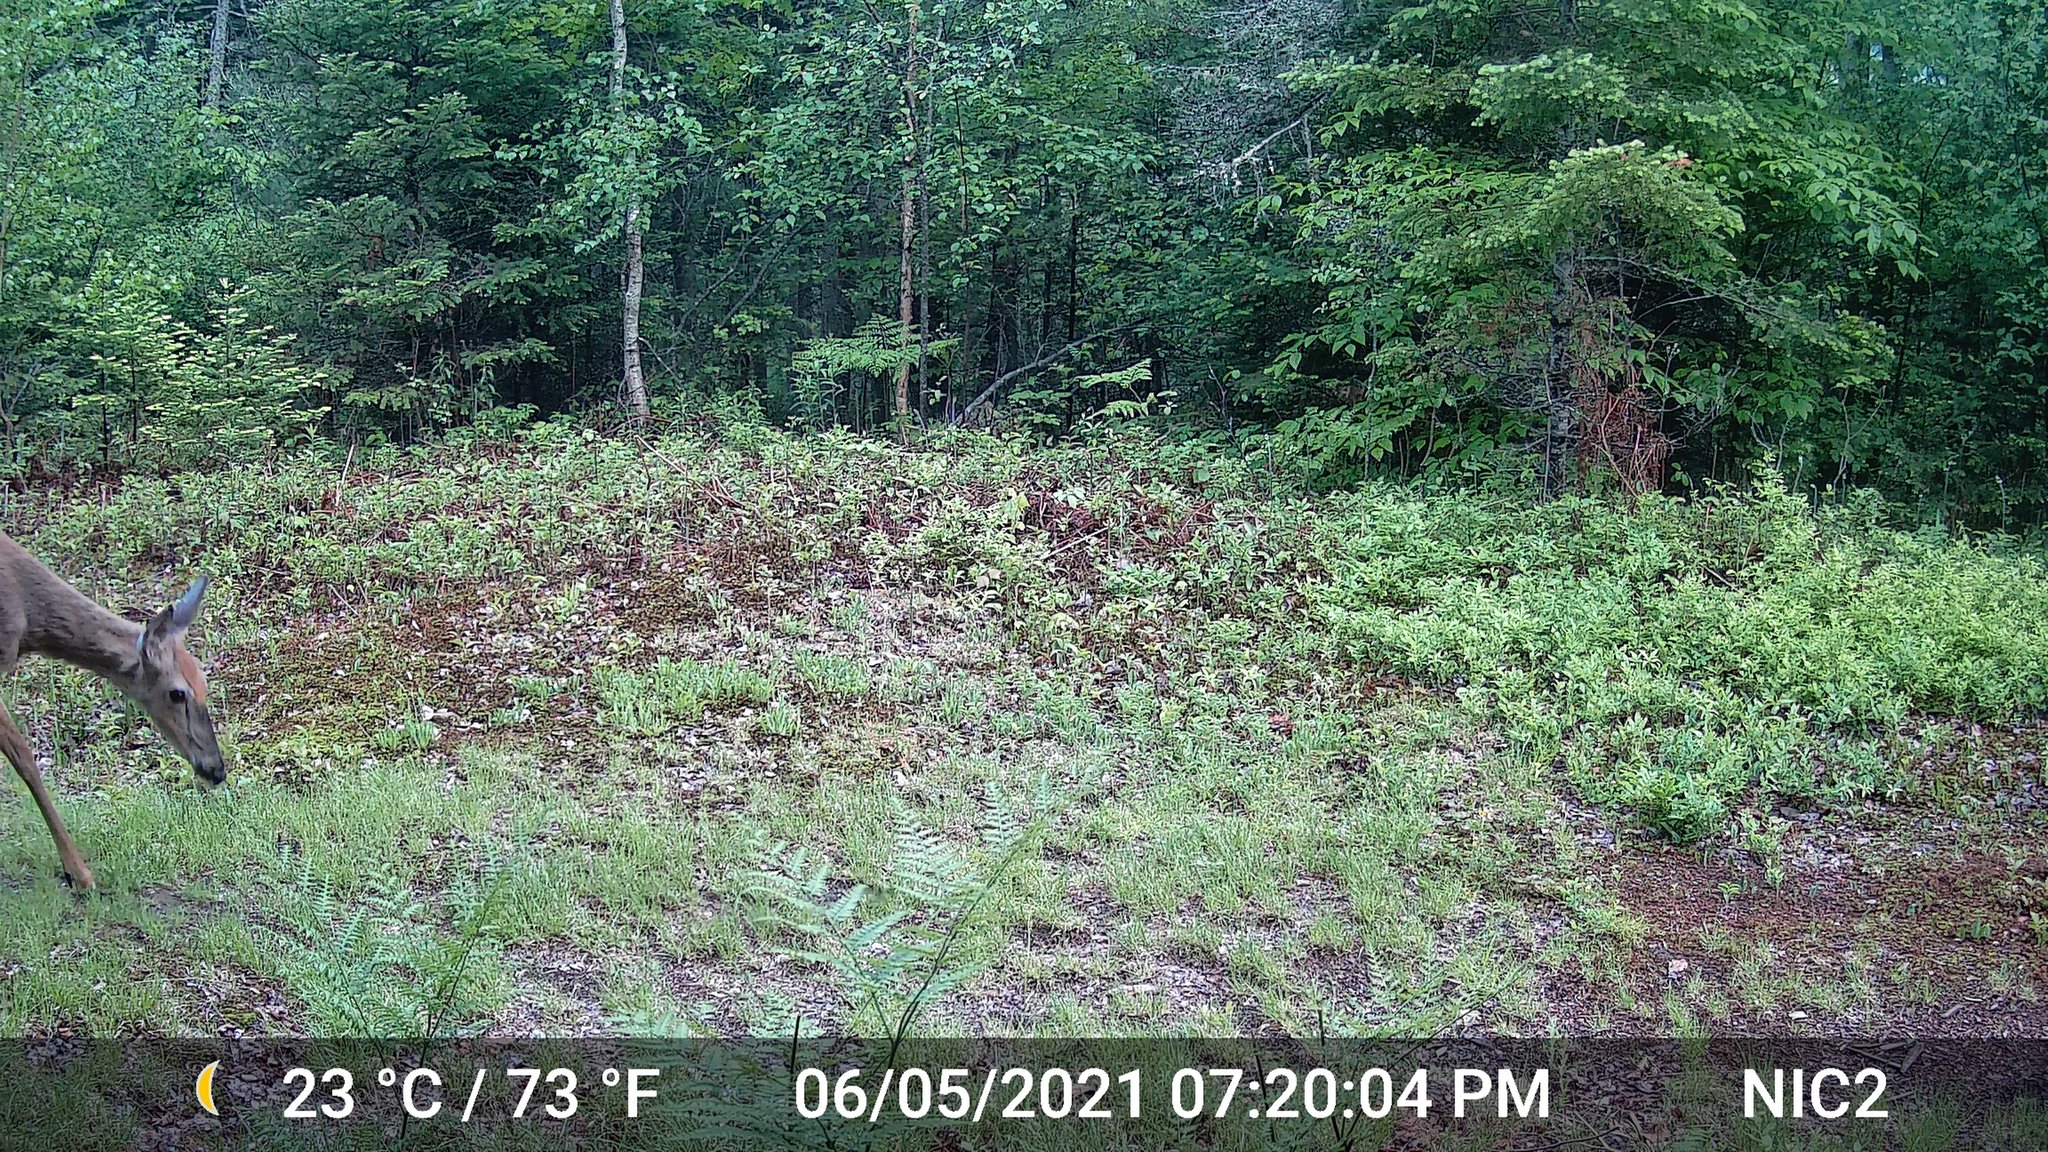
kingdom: Animalia
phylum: Chordata
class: Mammalia
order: Artiodactyla
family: Cervidae
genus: Odocoileus
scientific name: Odocoileus virginianus
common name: White-tailed deer
